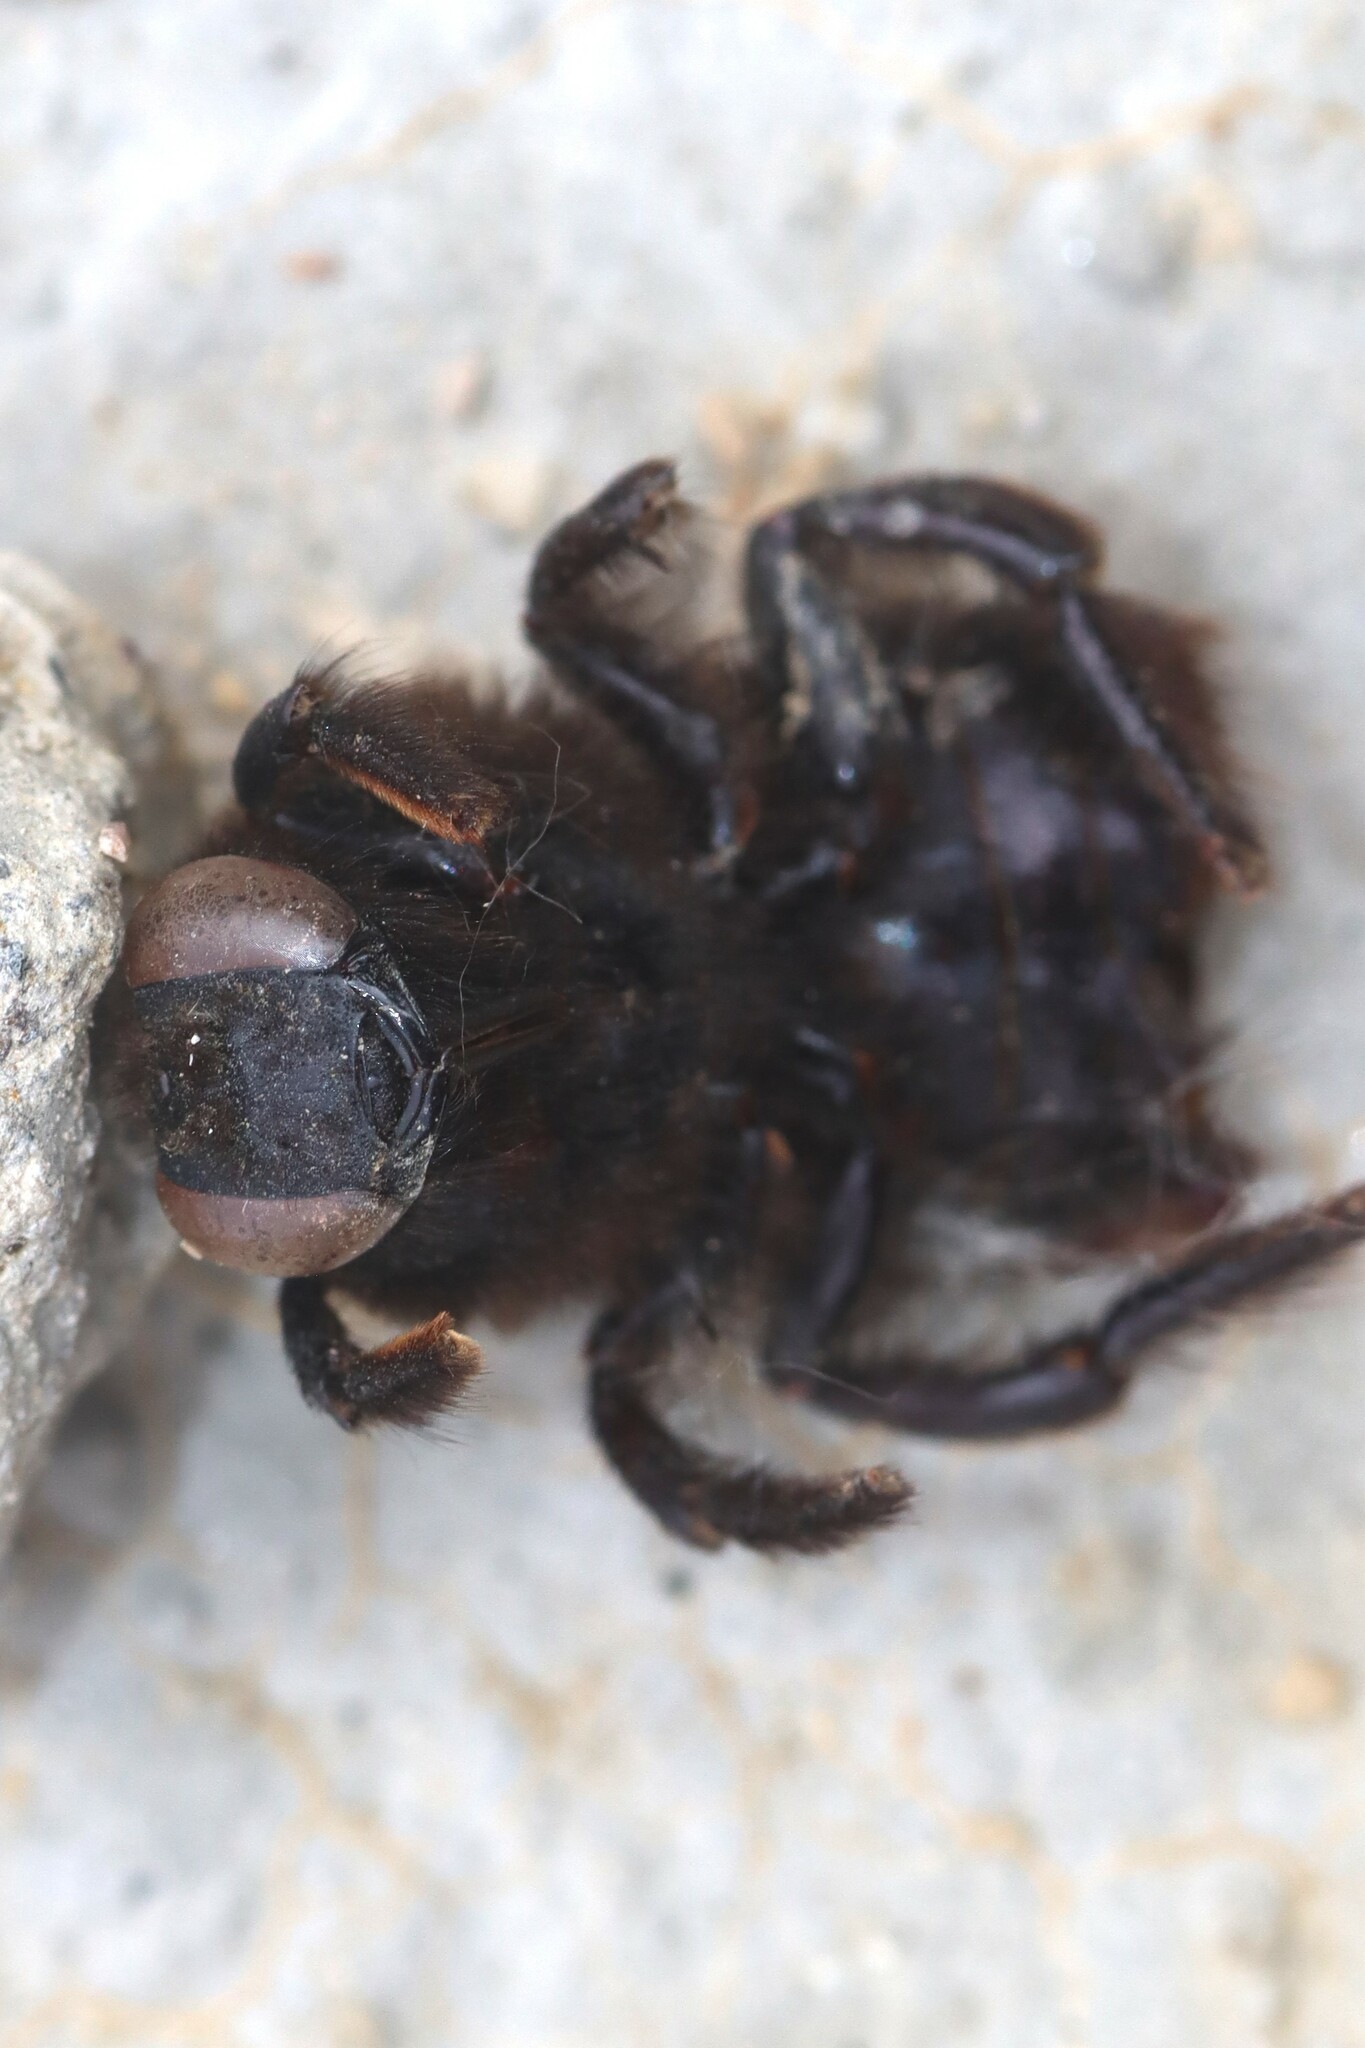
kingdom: Animalia
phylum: Arthropoda
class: Insecta
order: Hymenoptera
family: Apidae
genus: Xylocopa
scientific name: Xylocopa
